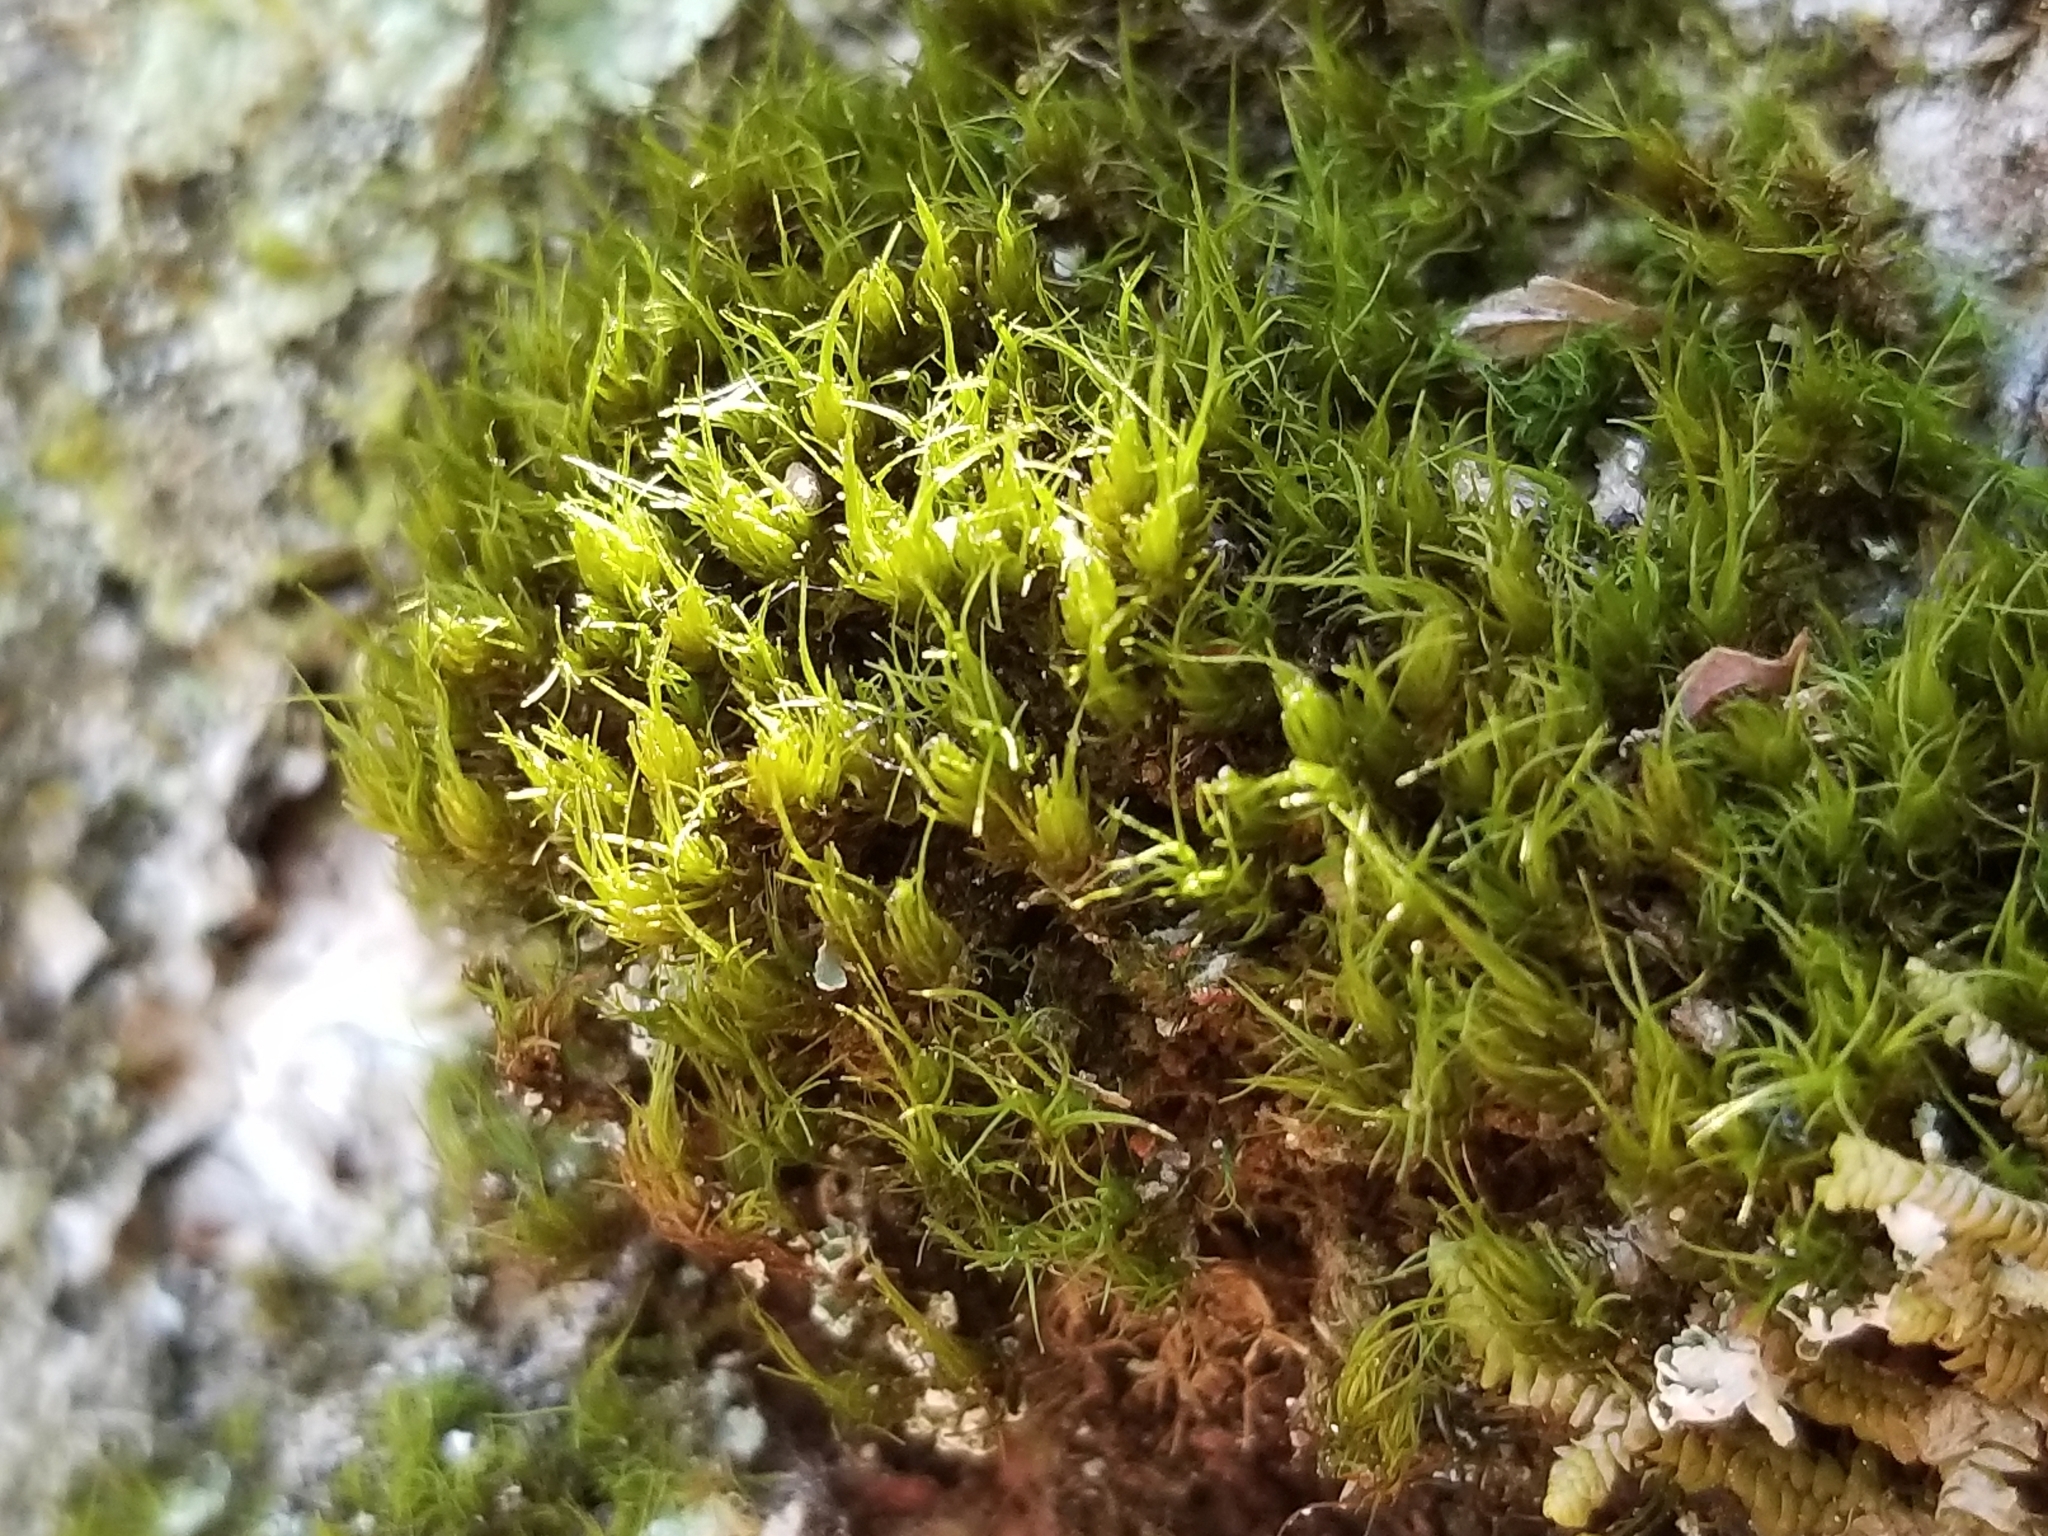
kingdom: Plantae
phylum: Bryophyta
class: Bryopsida
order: Dicranales
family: Dicranaceae
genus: Dicranum
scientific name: Dicranum viride
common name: Green broom moss
